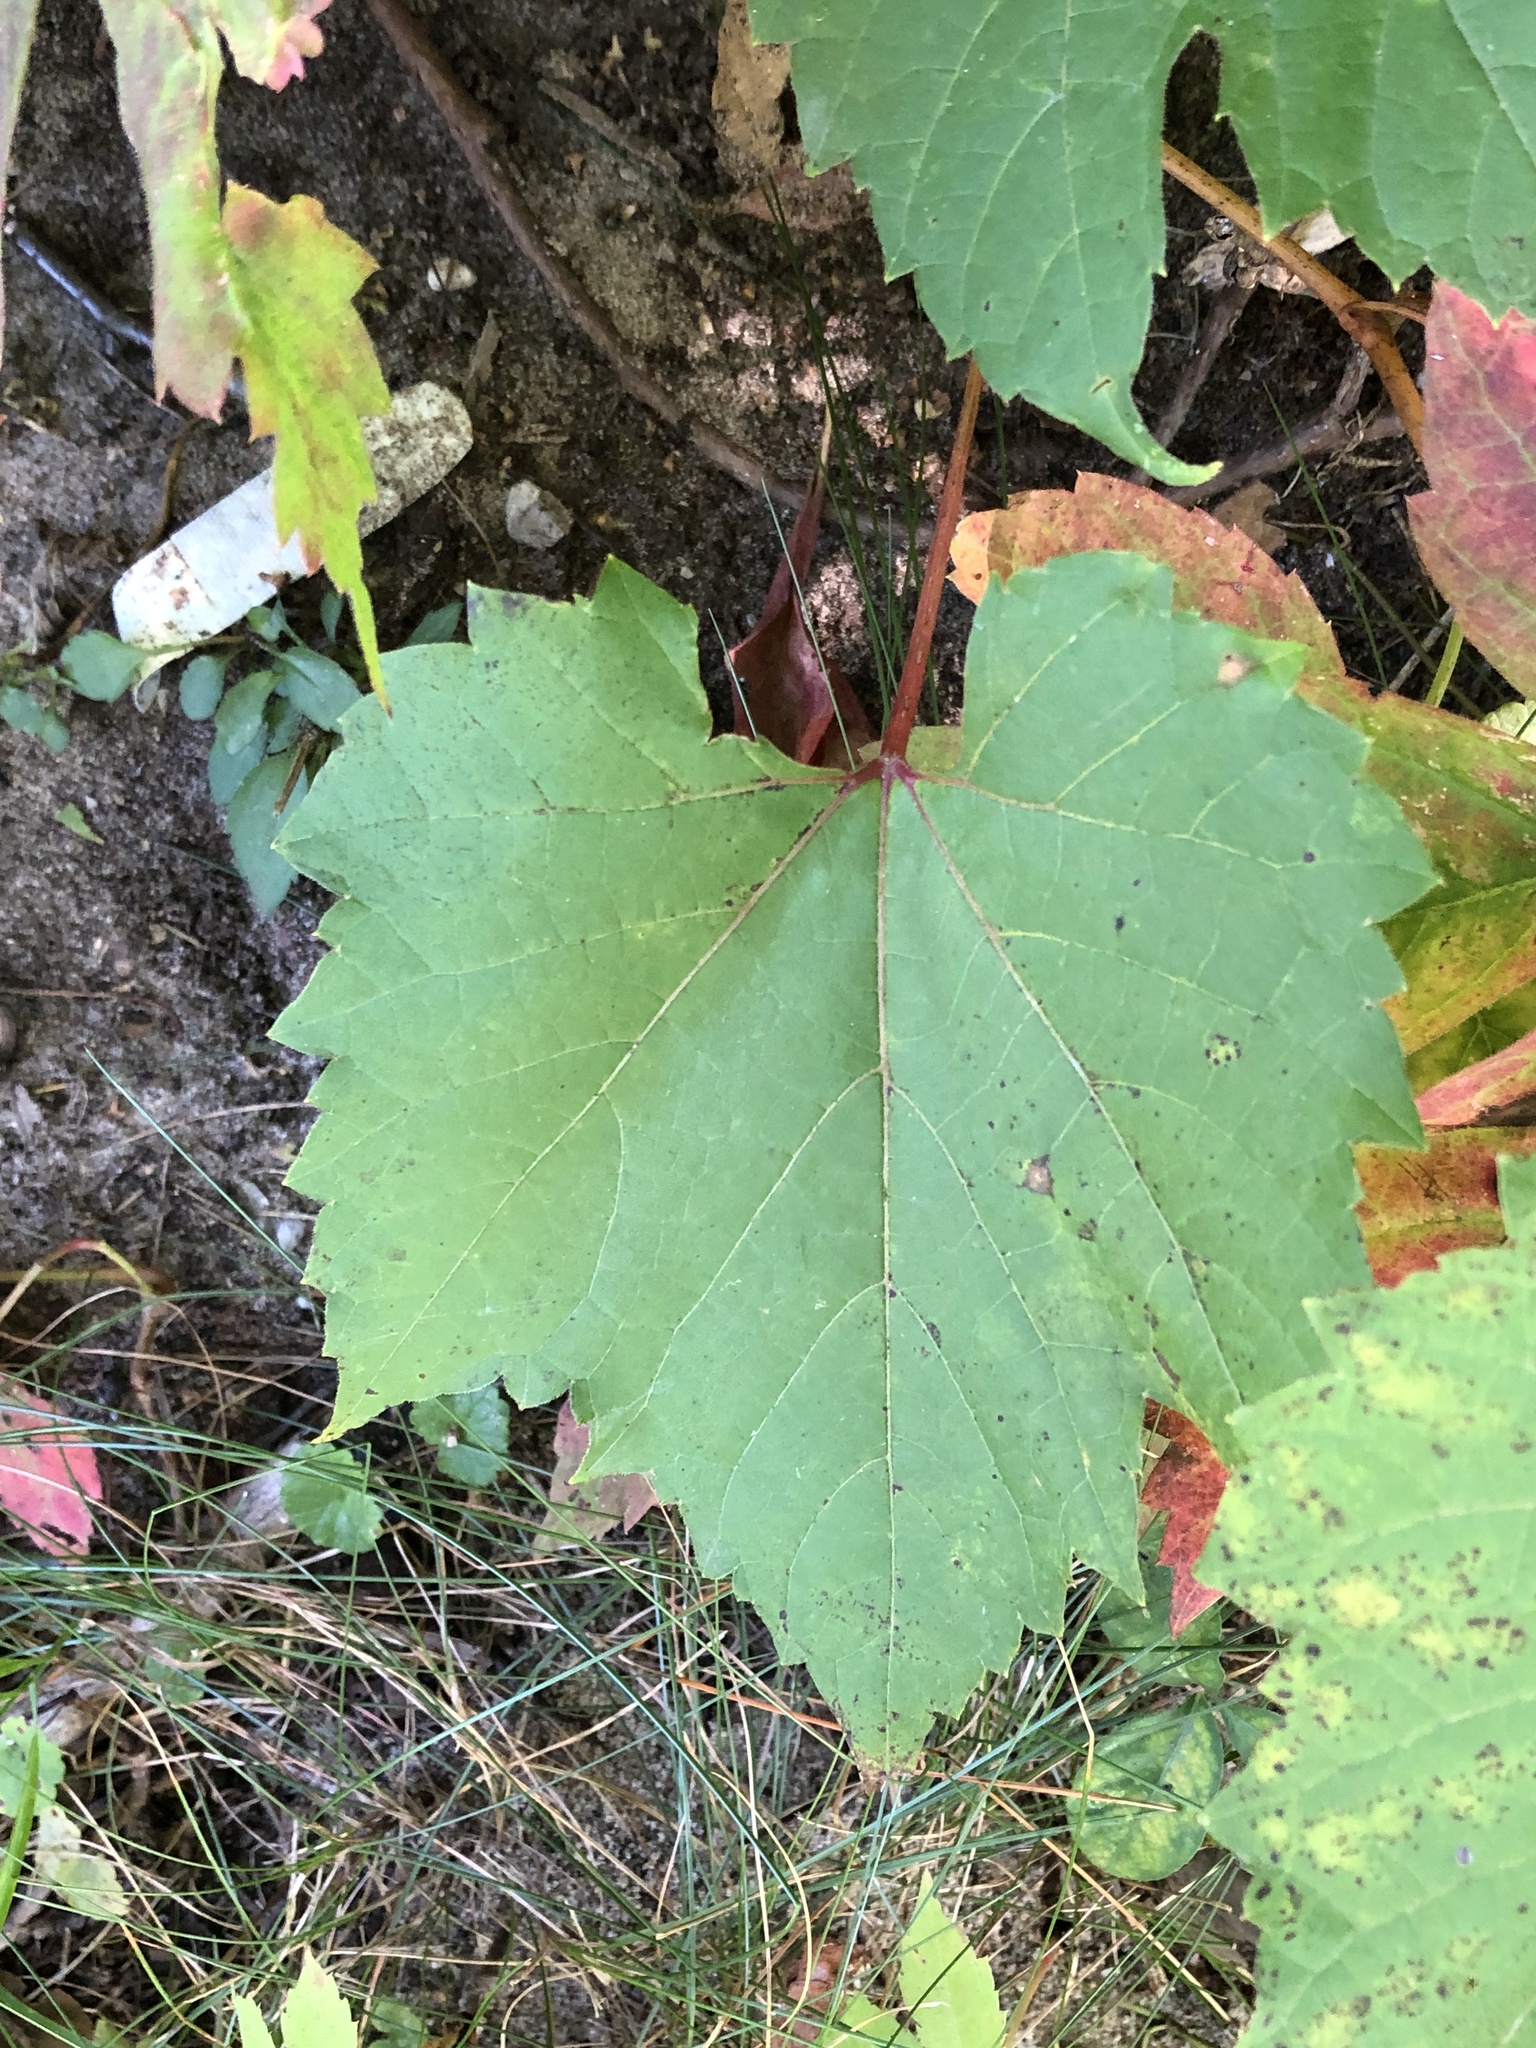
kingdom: Plantae
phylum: Tracheophyta
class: Magnoliopsida
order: Vitales
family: Vitaceae
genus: Vitis
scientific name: Vitis riparia
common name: Frost grape
